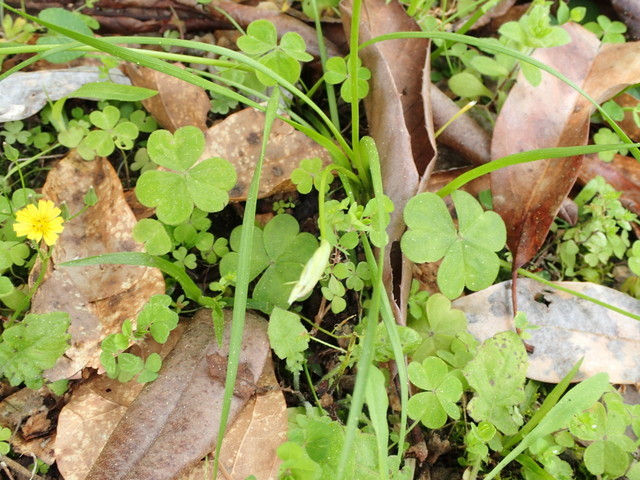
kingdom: Plantae
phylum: Tracheophyta
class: Liliopsida
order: Asparagales
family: Amaryllidaceae
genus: Nothoscordum
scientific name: Nothoscordum bivalve
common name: Crow-poison
